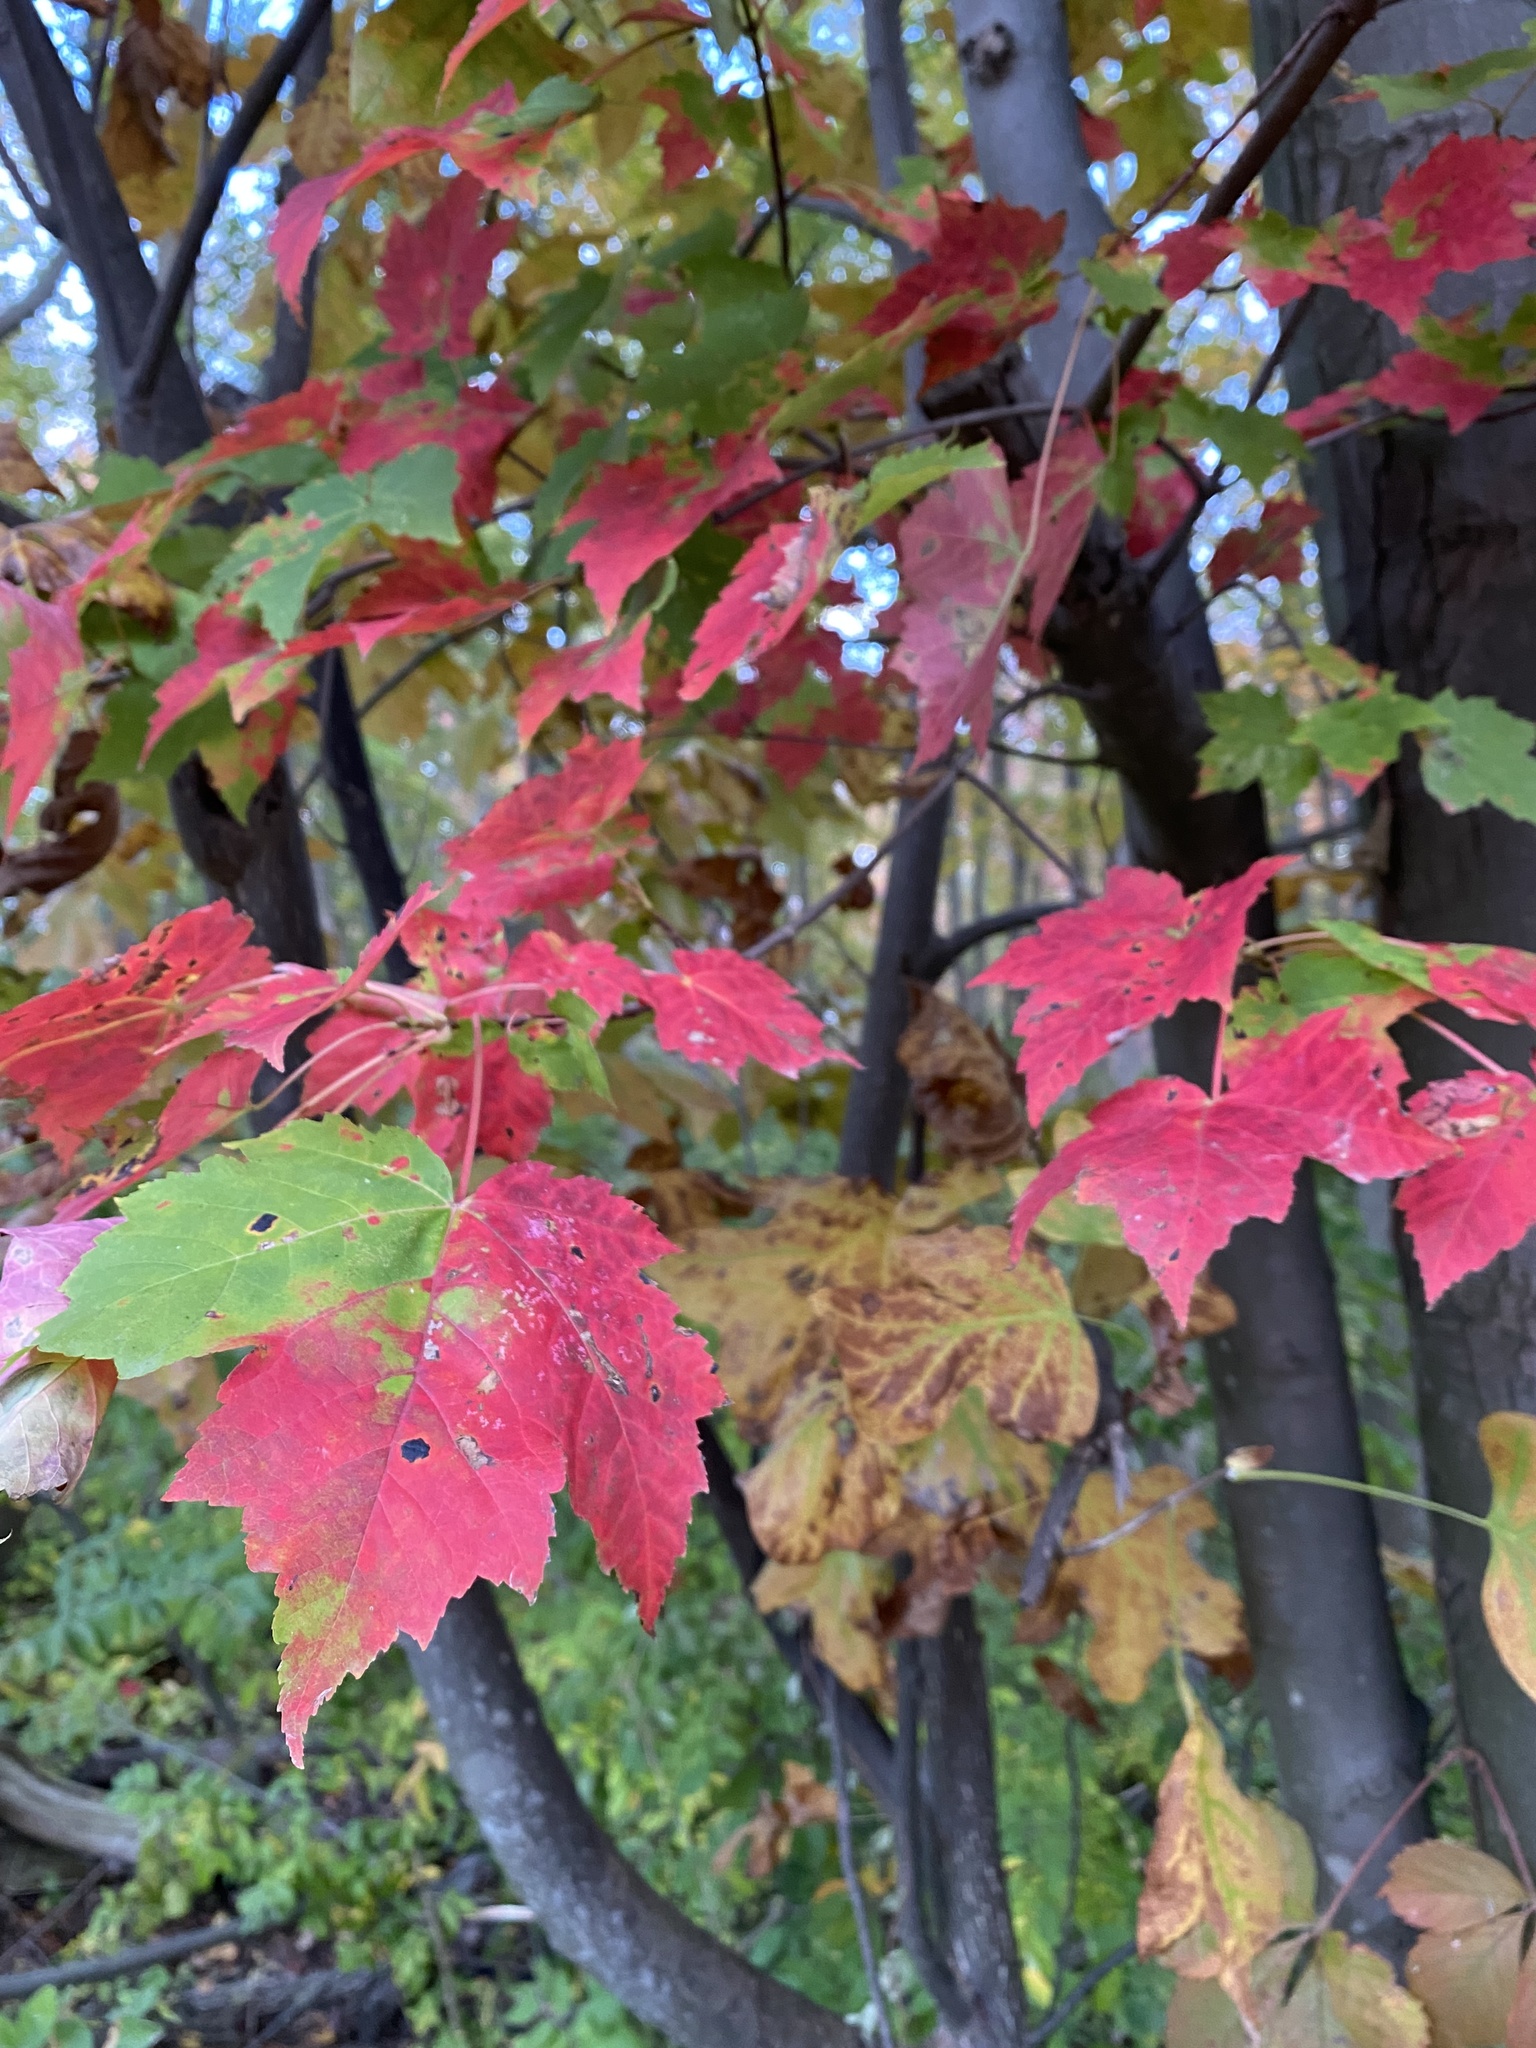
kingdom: Plantae
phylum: Tracheophyta
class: Magnoliopsida
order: Sapindales
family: Sapindaceae
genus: Acer
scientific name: Acer rubrum
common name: Red maple
